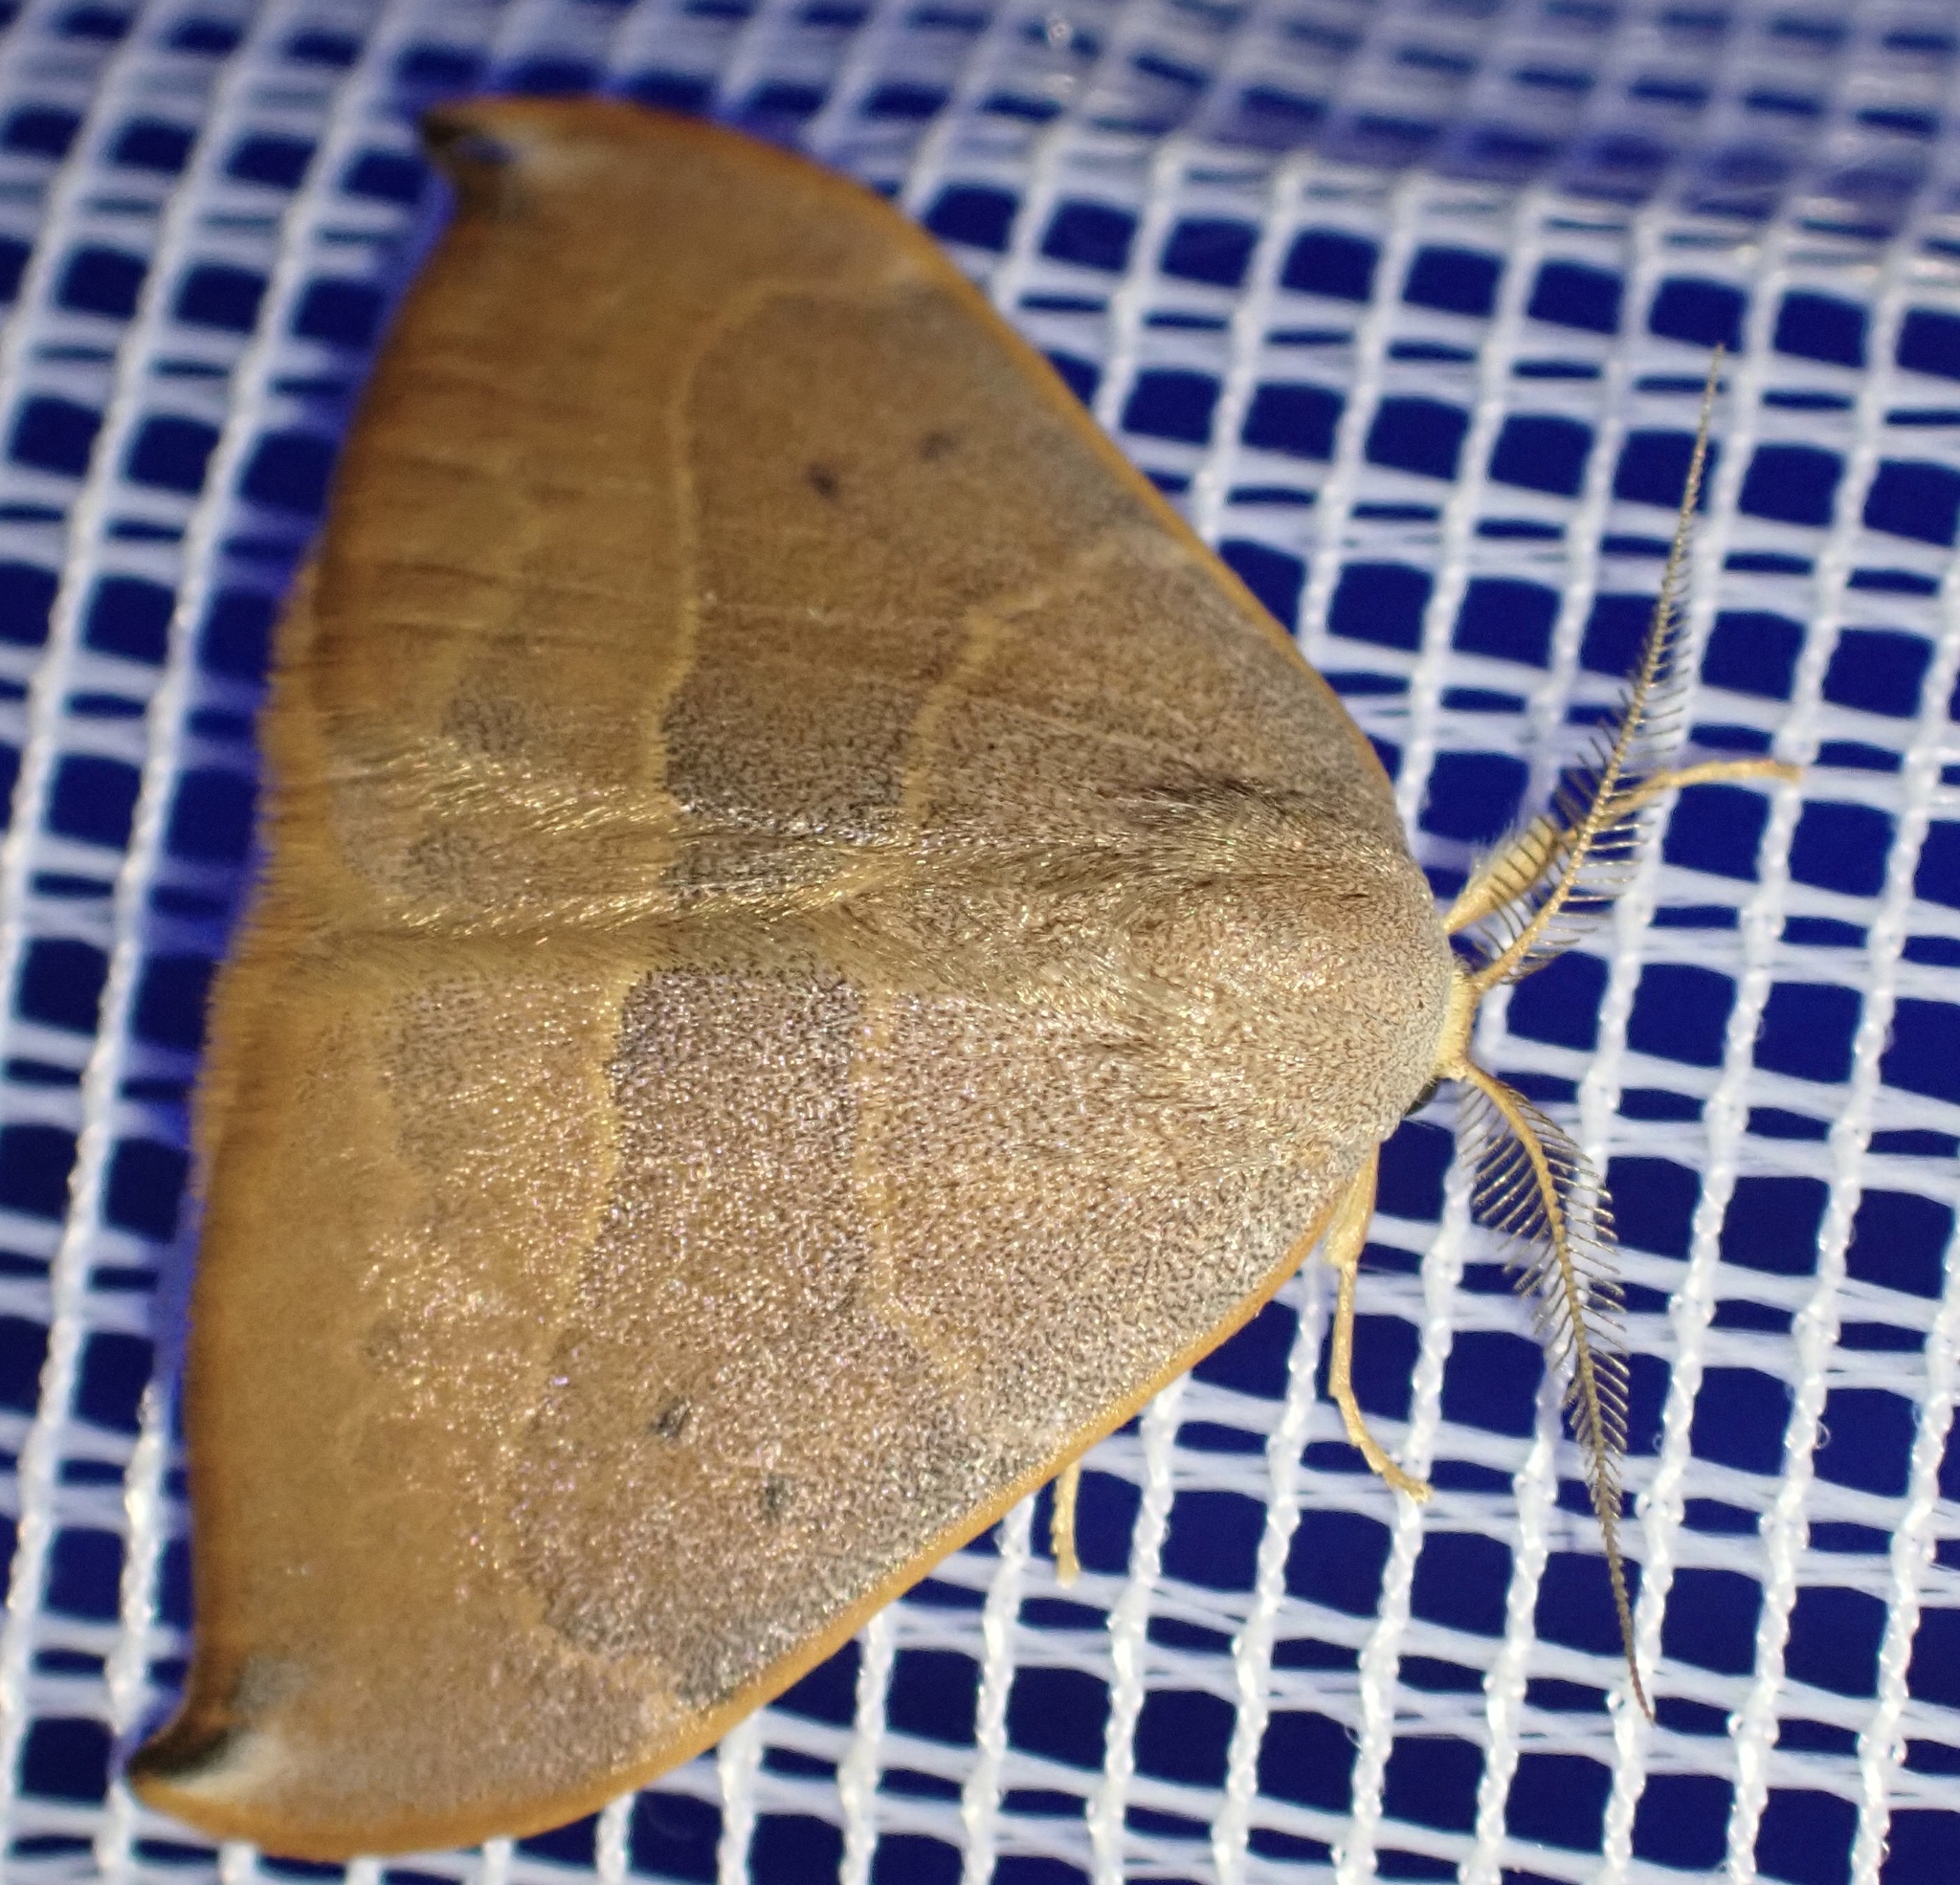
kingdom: Animalia
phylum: Arthropoda
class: Insecta
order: Lepidoptera
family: Drepanidae
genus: Watsonalla
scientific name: Watsonalla uncinula
